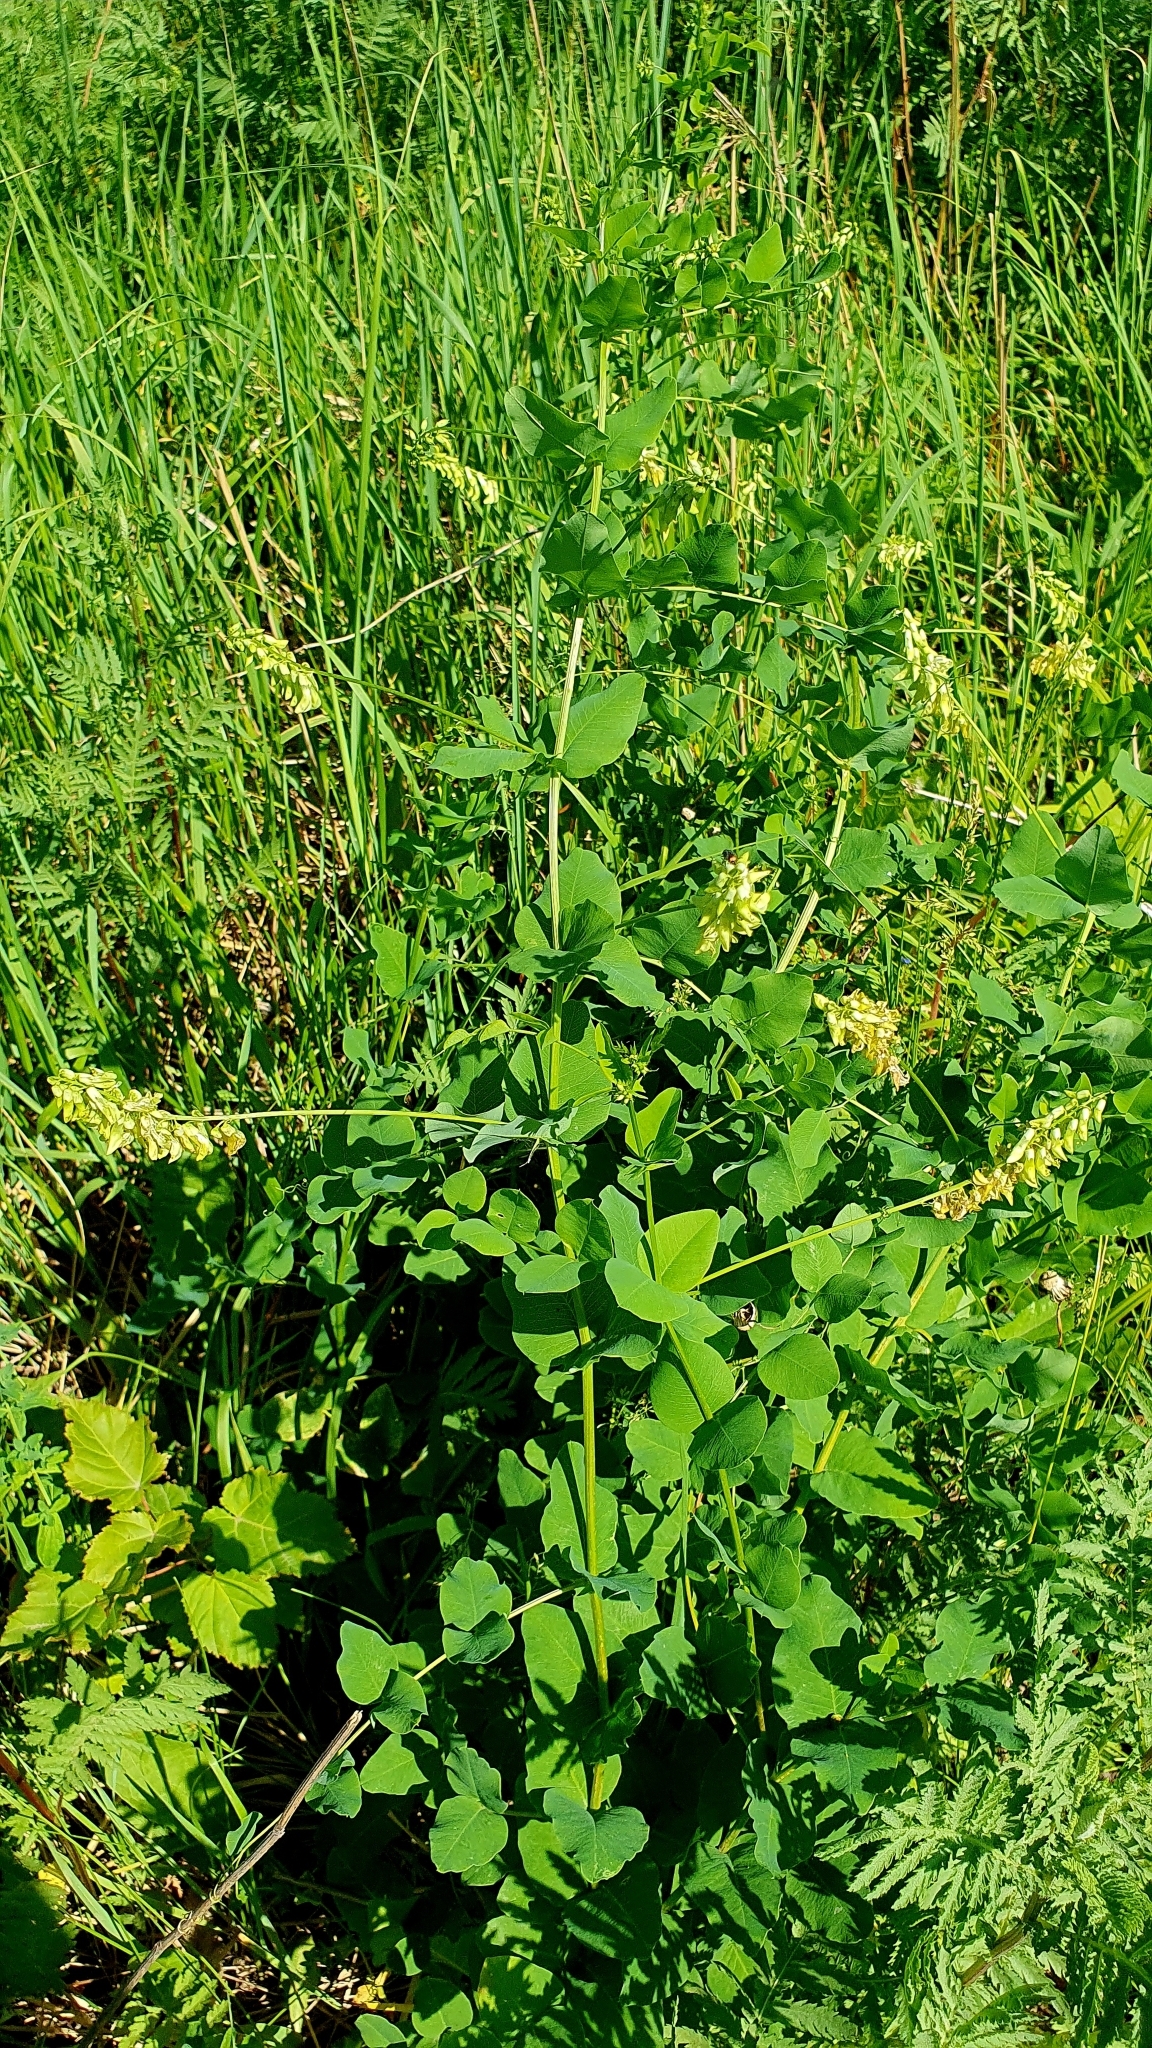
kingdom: Plantae
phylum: Tracheophyta
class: Magnoliopsida
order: Fabales
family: Fabaceae
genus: Vicia
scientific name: Vicia pisiformis
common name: Pale-flower vetch
